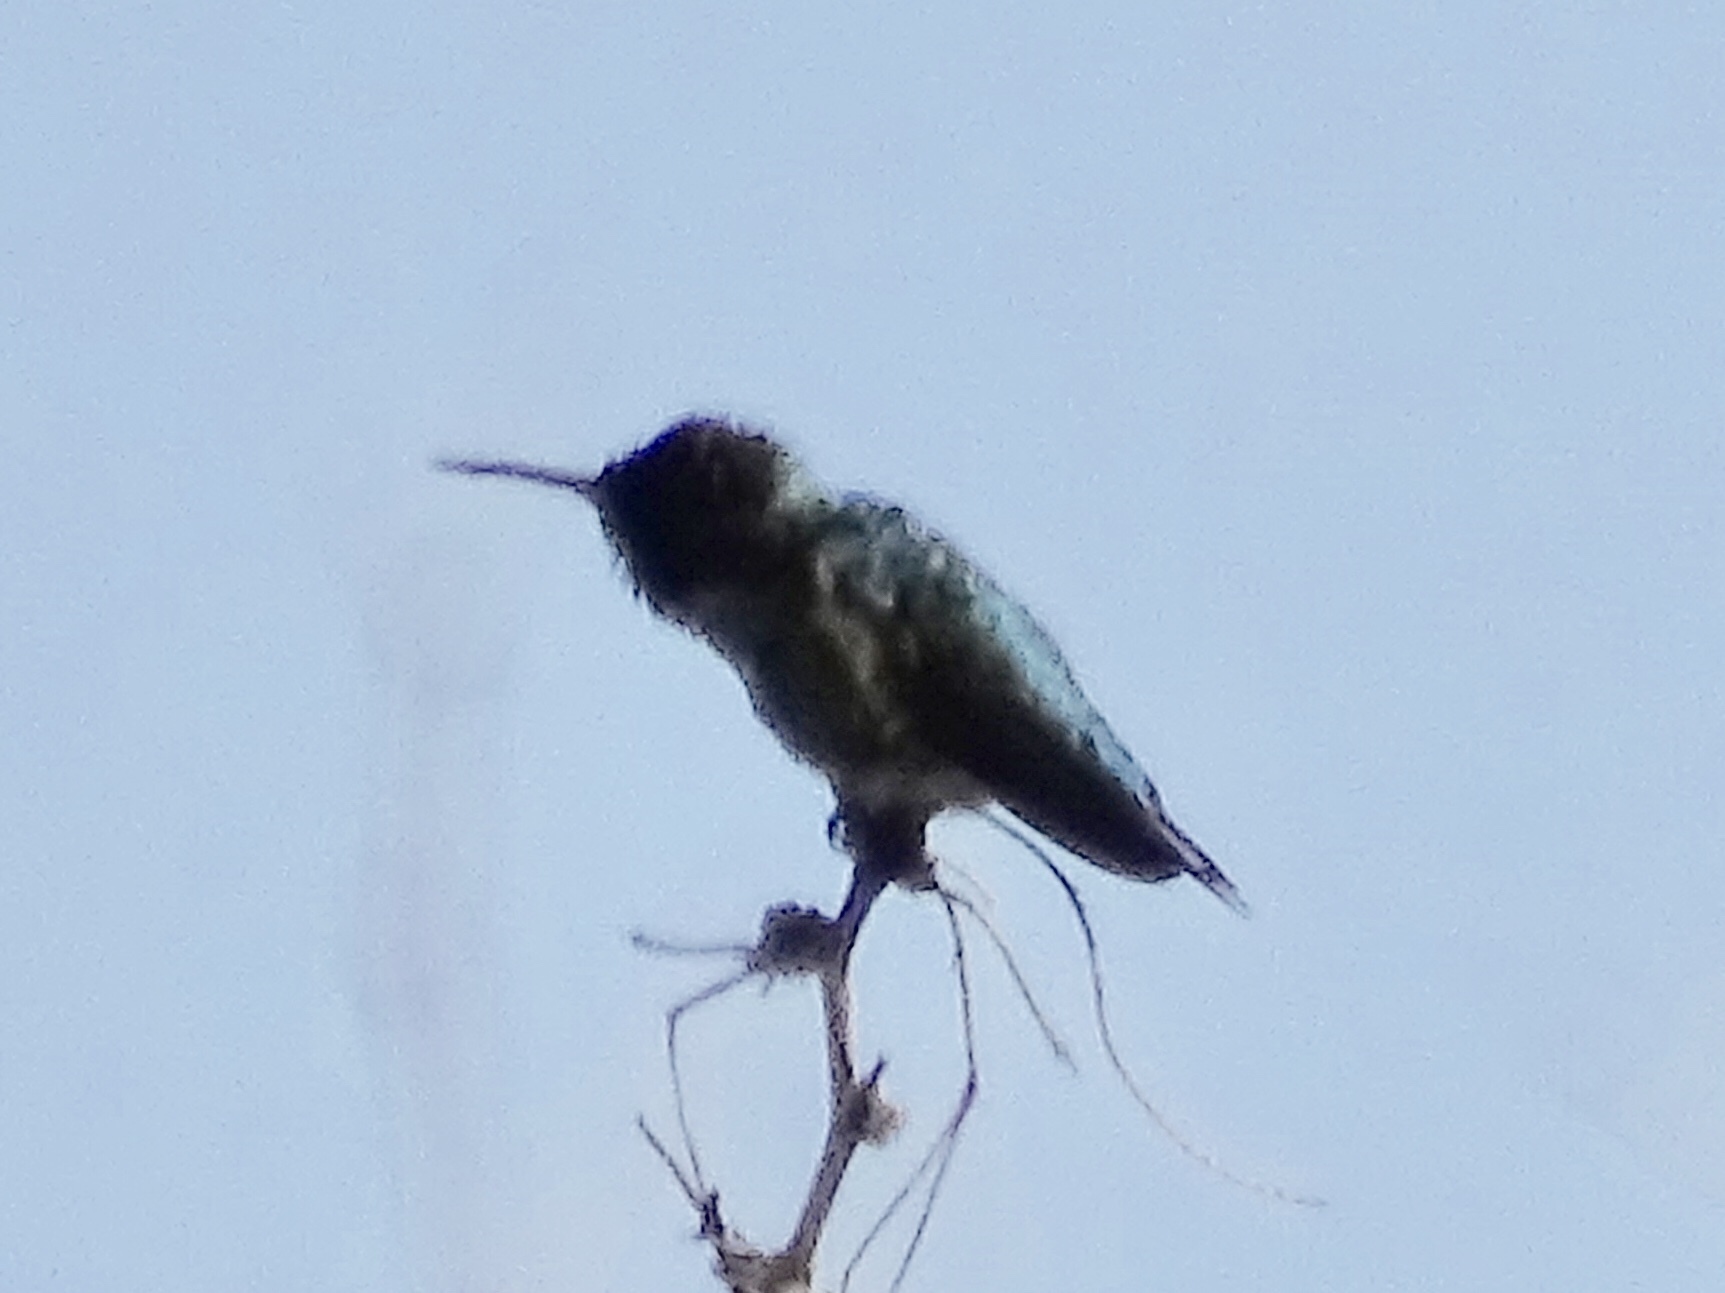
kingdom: Animalia
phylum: Chordata
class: Aves
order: Apodiformes
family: Trochilidae
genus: Calypte
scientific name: Calypte anna
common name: Anna's hummingbird
